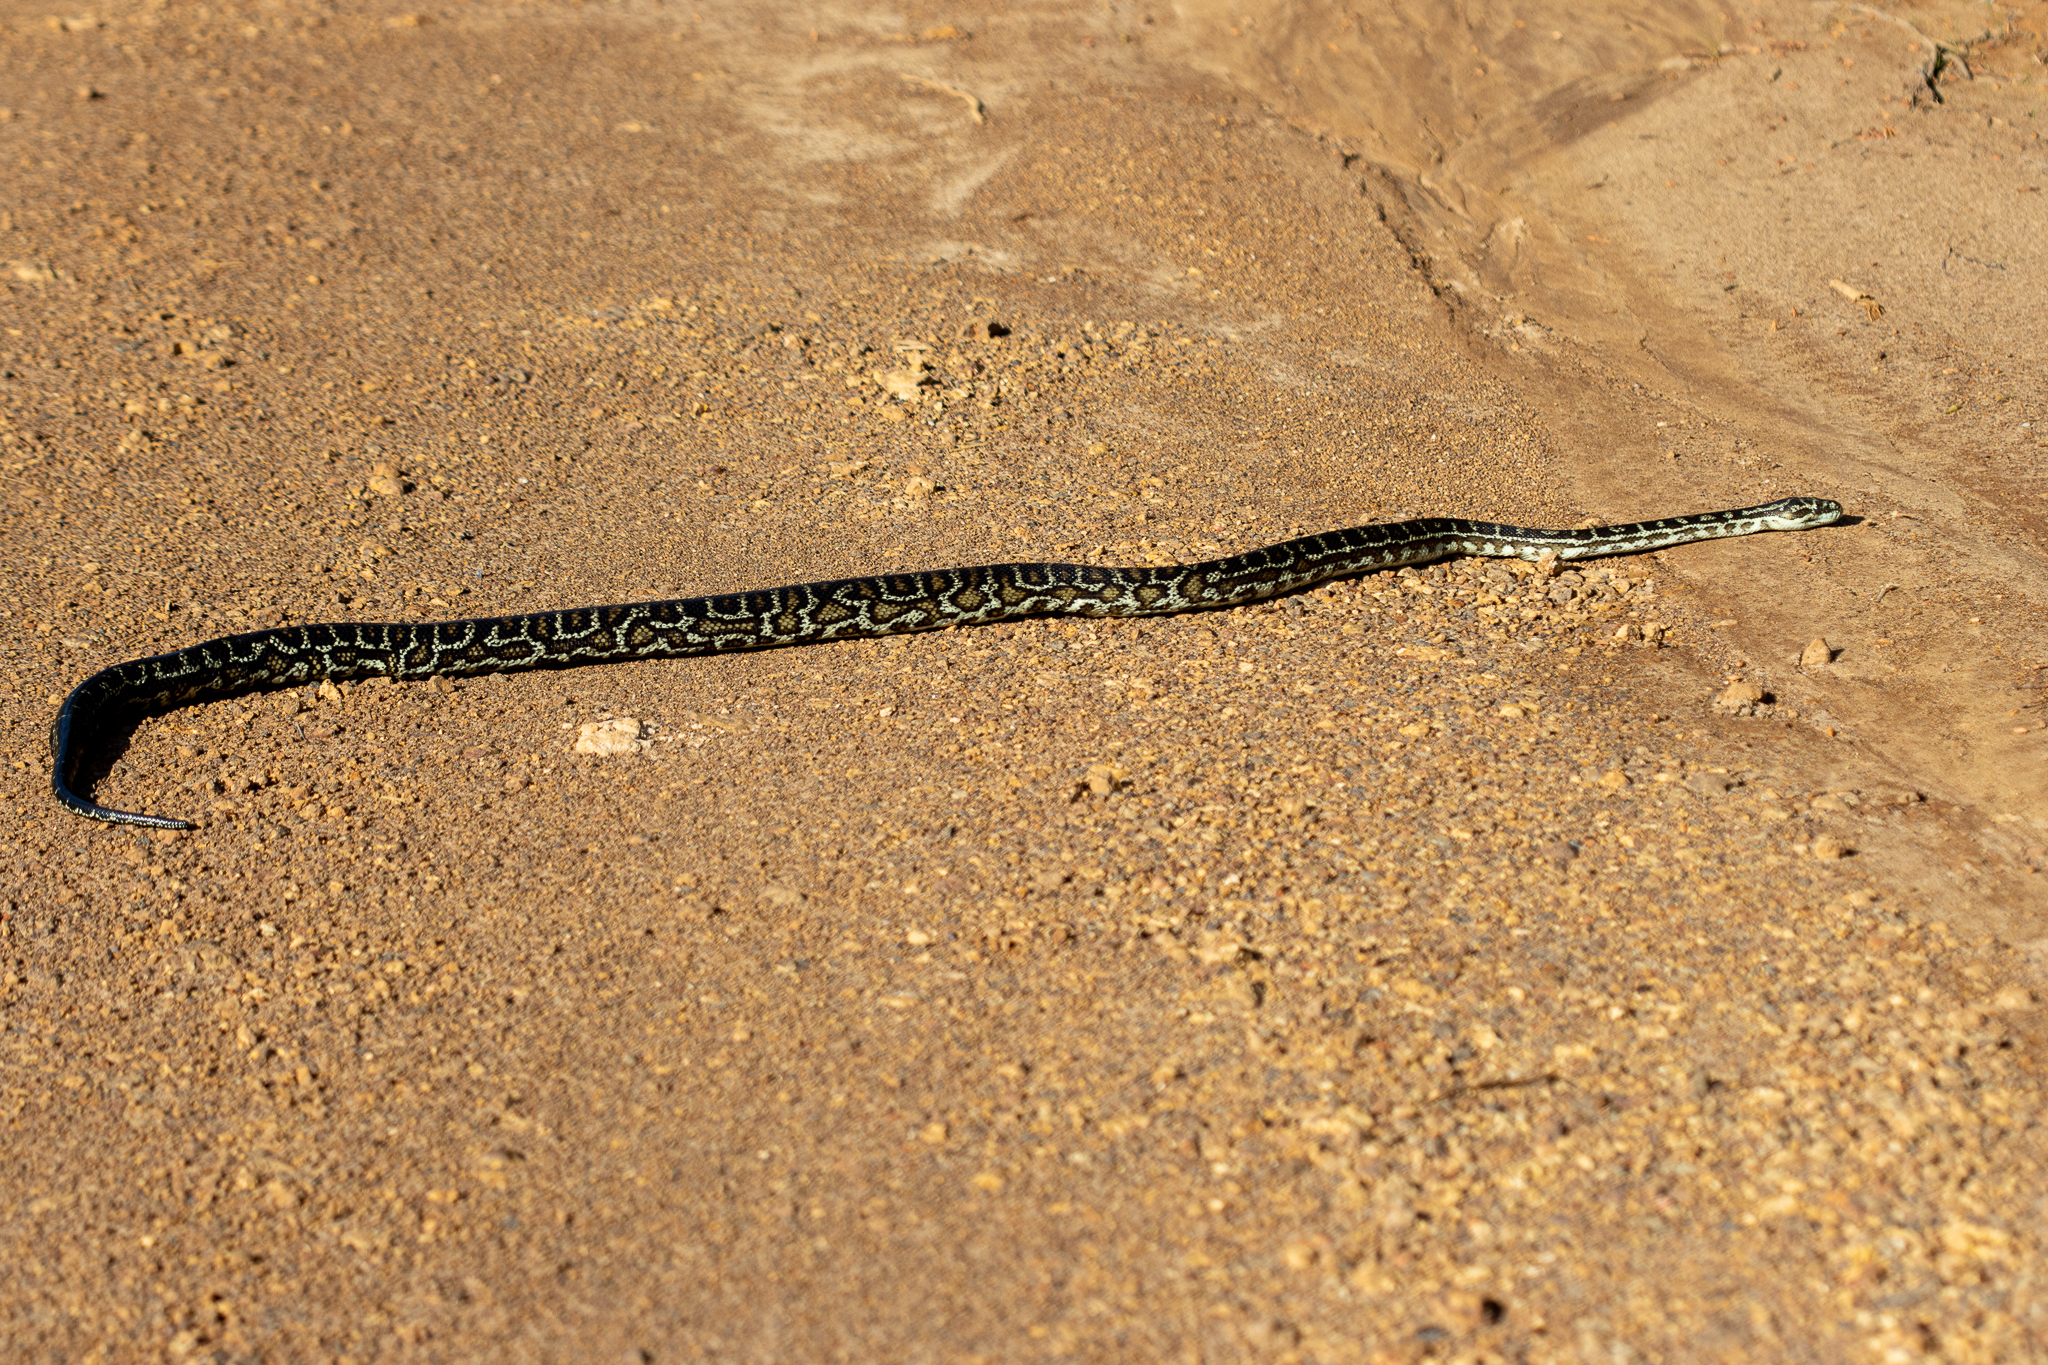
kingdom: Animalia
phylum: Chordata
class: Squamata
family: Pythonidae
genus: Morelia
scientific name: Morelia imbricata
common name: Carpet python
